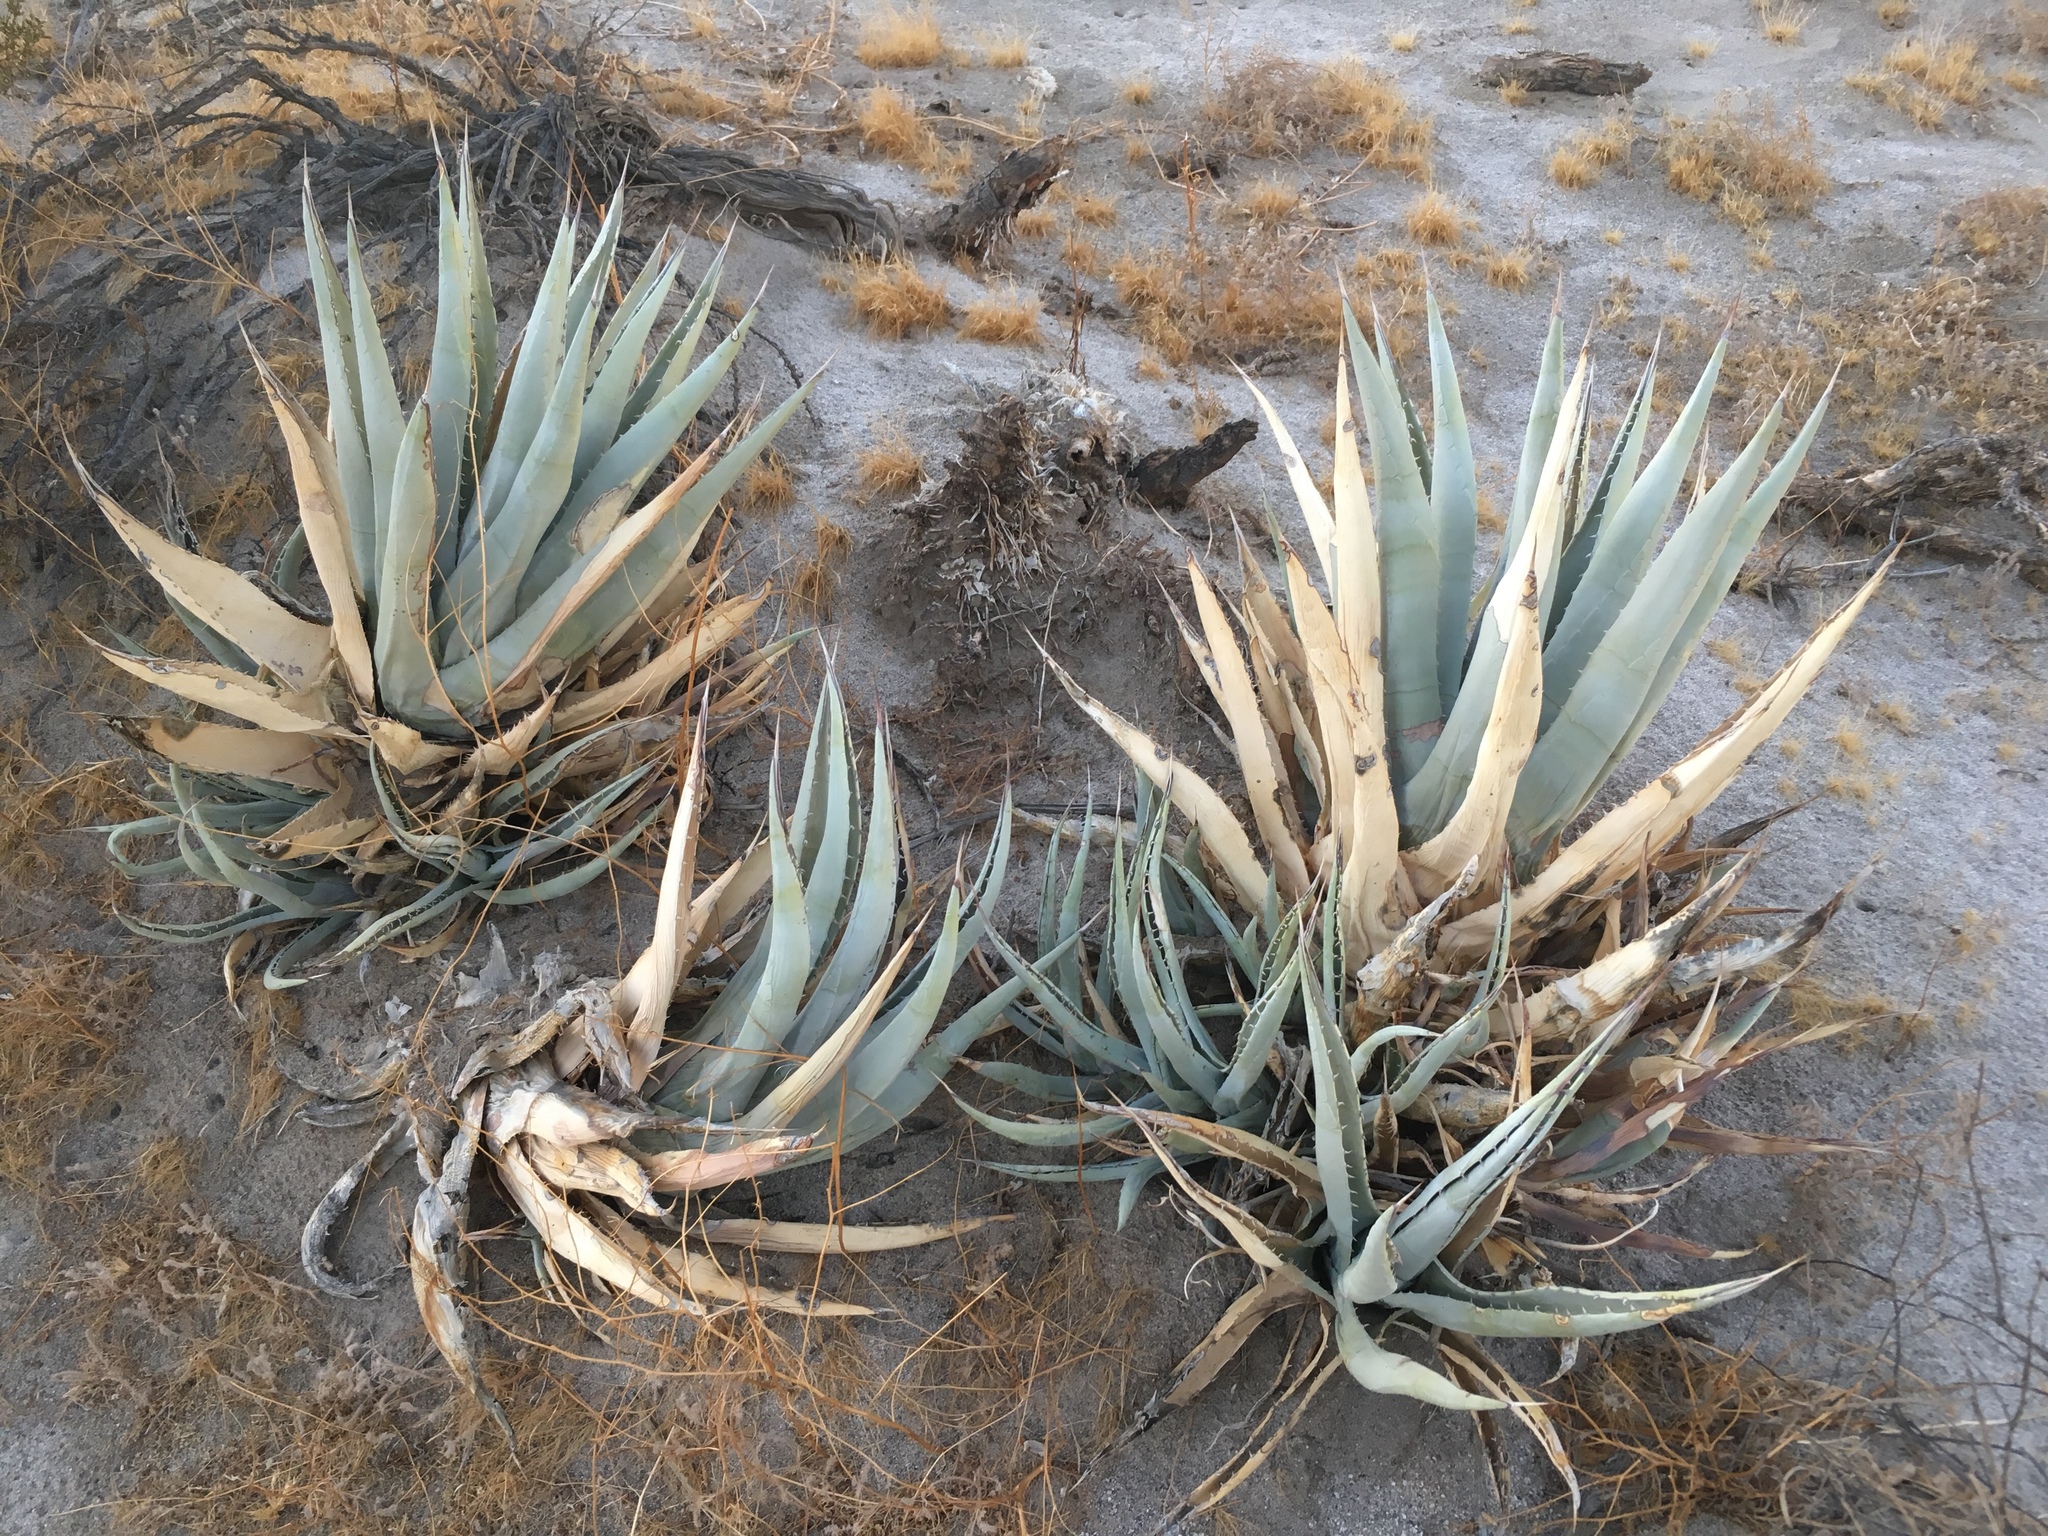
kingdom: Plantae
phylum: Tracheophyta
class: Liliopsida
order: Asparagales
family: Asparagaceae
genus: Agave
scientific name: Agave deserti
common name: Desert agave
